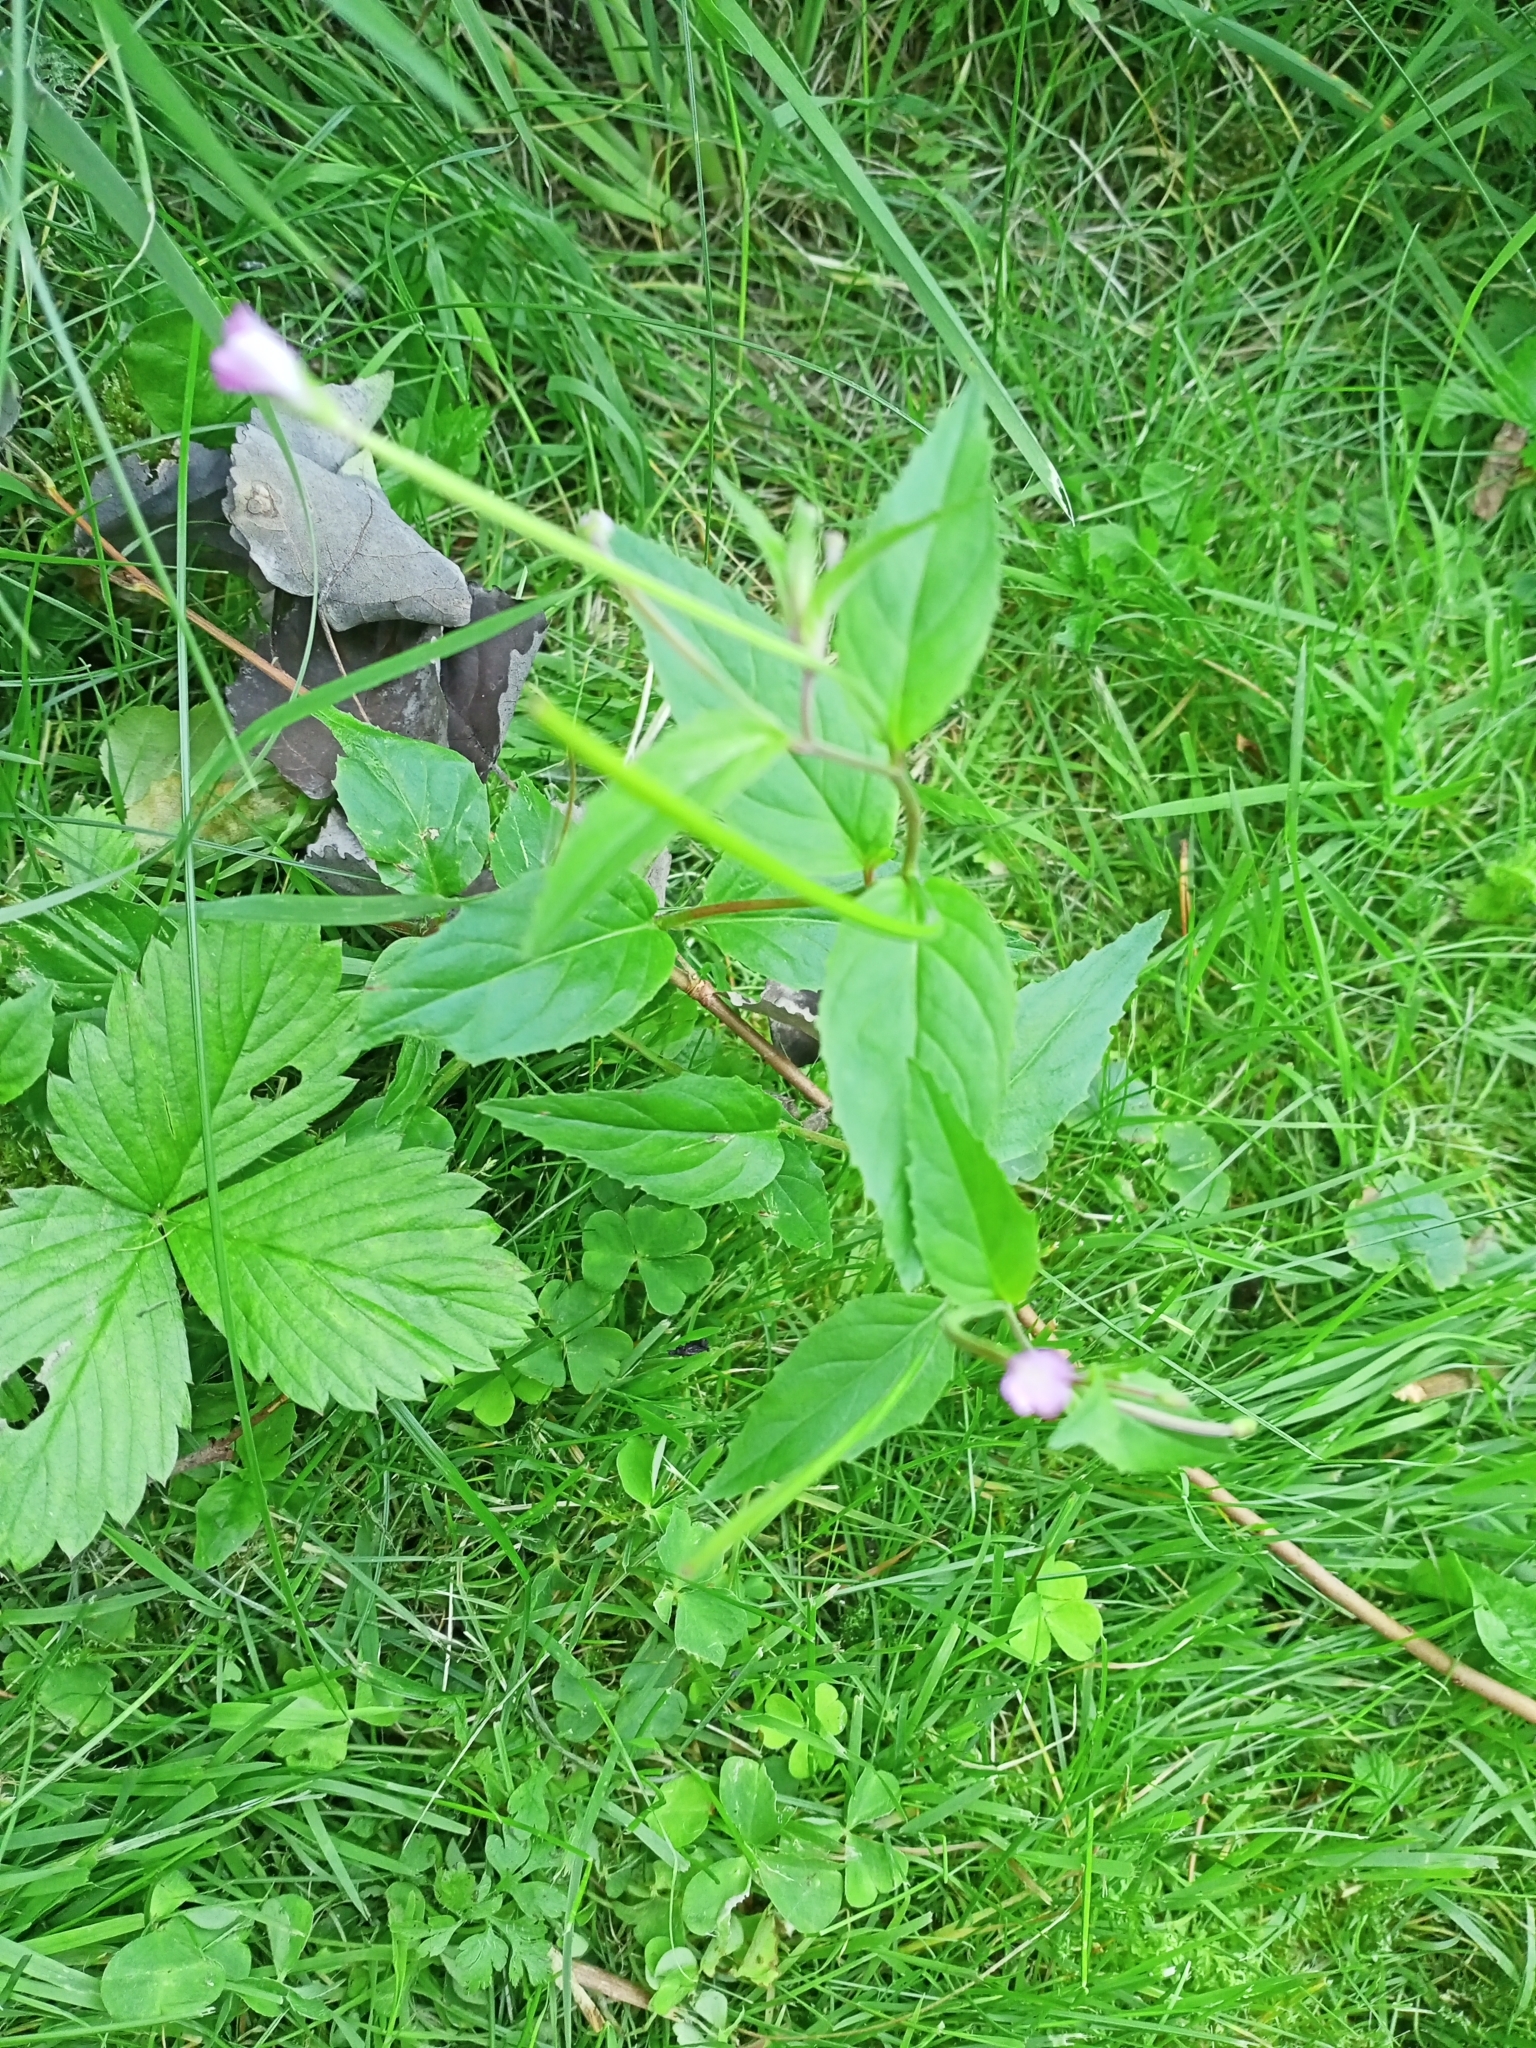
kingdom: Plantae
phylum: Tracheophyta
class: Magnoliopsida
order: Myrtales
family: Onagraceae
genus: Epilobium
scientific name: Epilobium montanum
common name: Broad-leaved willowherb
